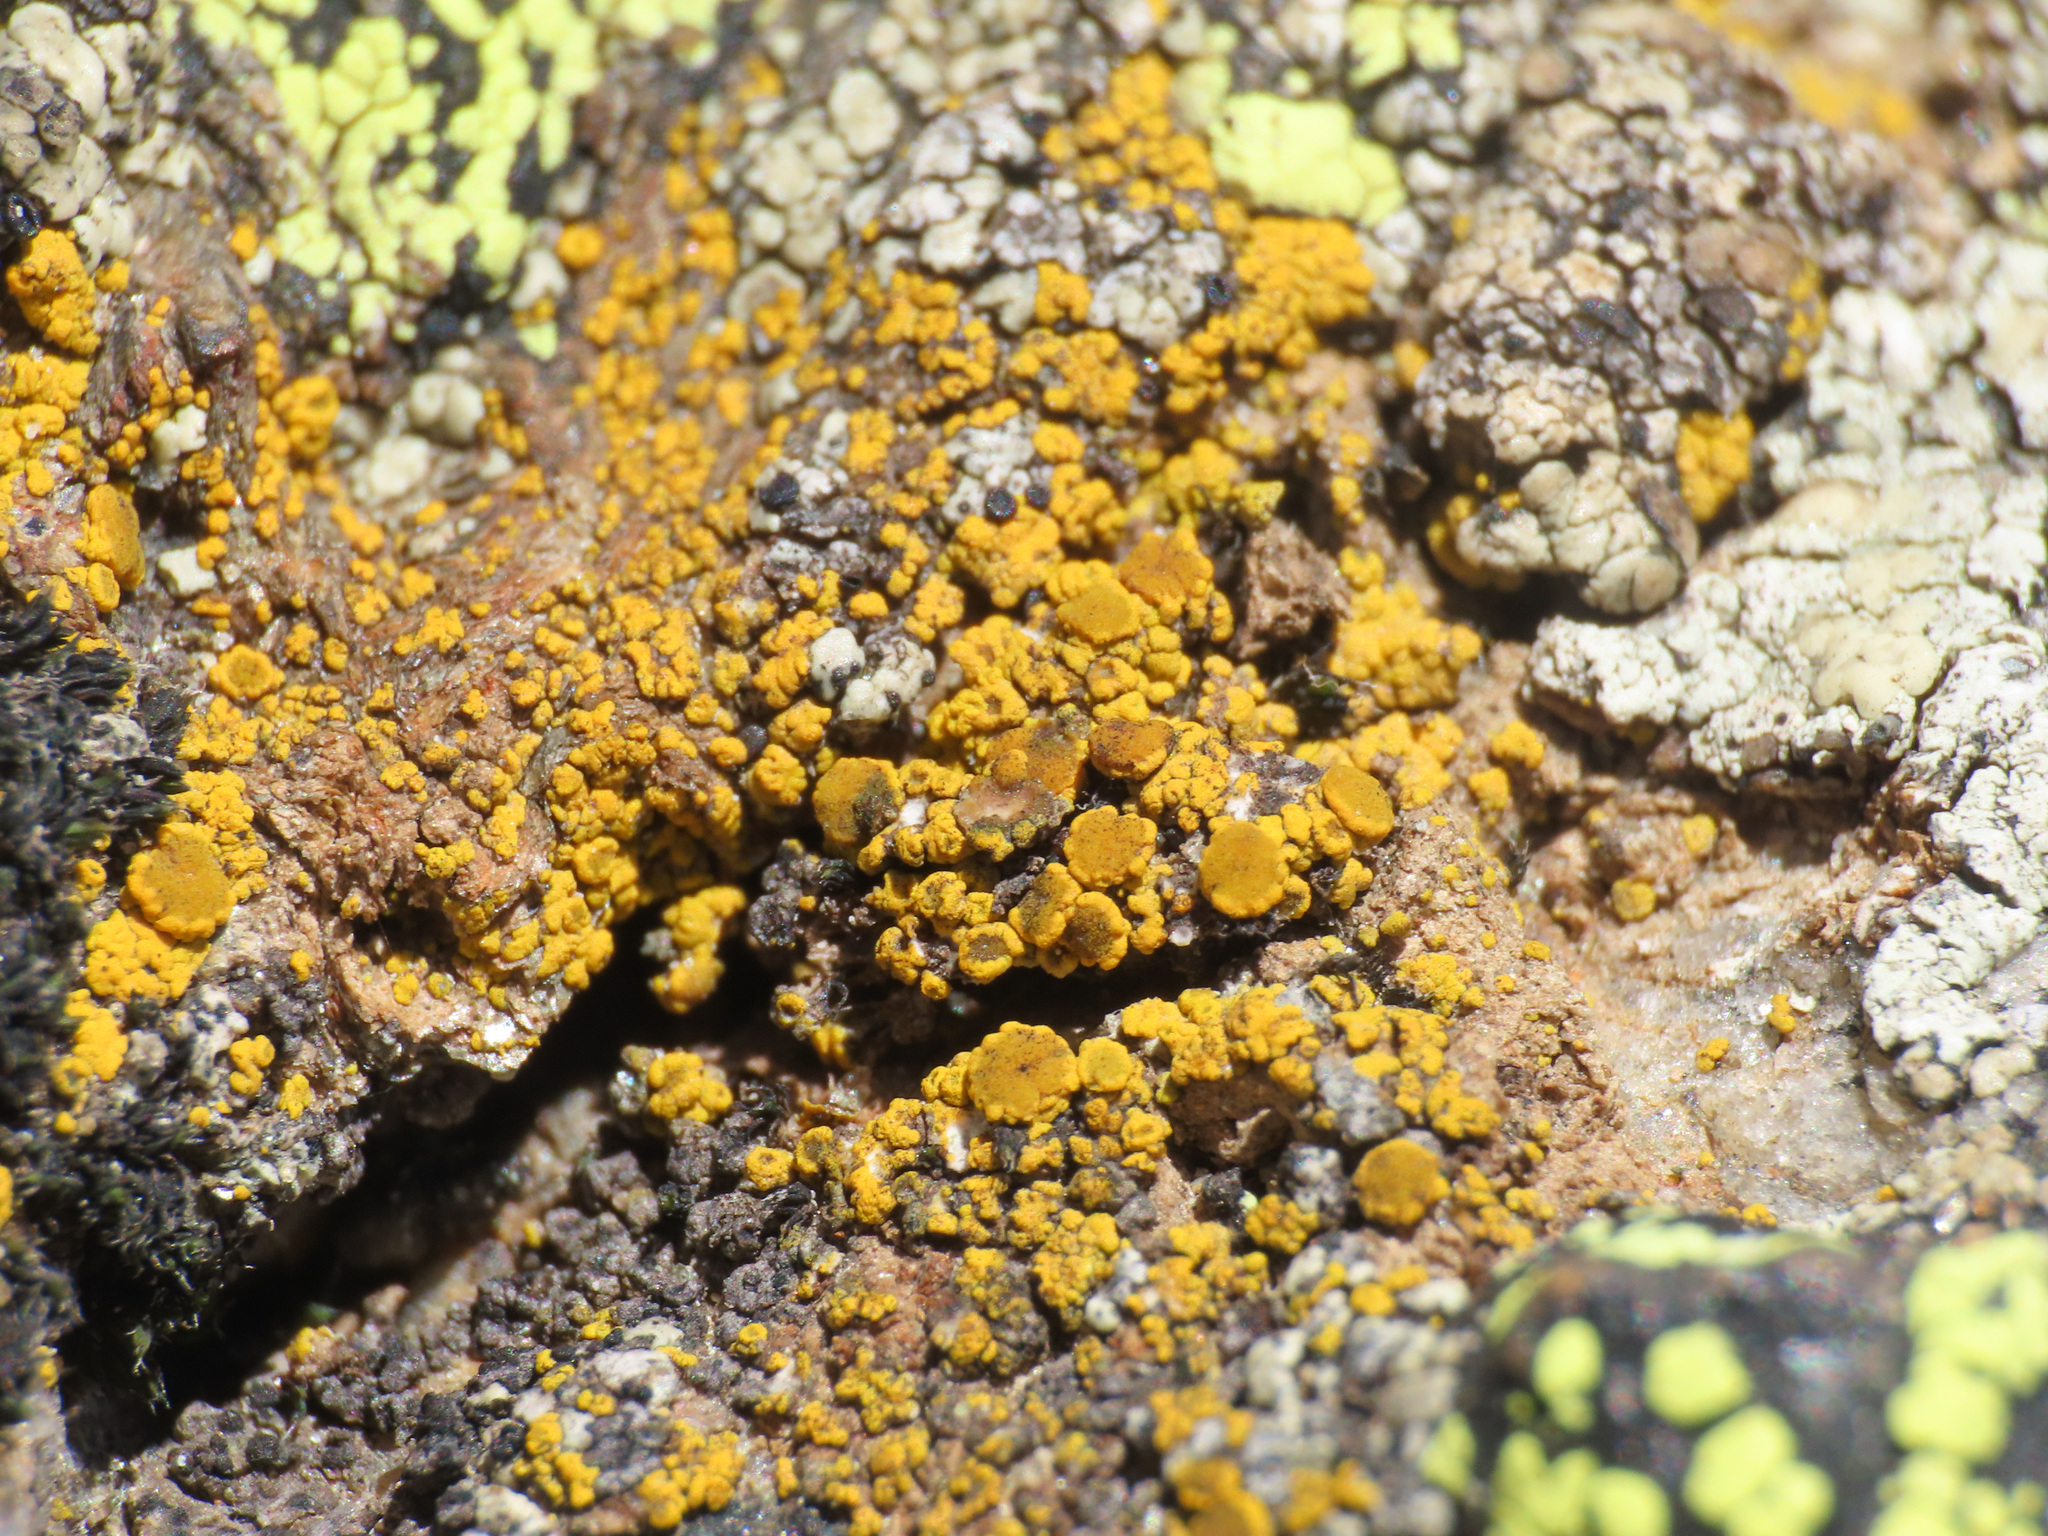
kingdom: Fungi
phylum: Ascomycota
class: Candelariomycetes
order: Candelariales
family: Candelariaceae
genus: Candelariella
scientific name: Candelariella vitellina
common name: Common goldspeck
